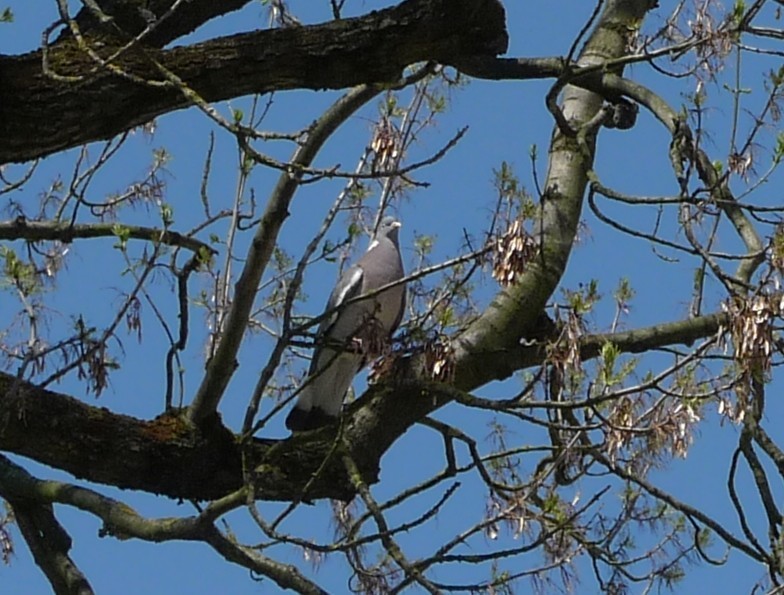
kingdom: Animalia
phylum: Chordata
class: Aves
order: Columbiformes
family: Columbidae
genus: Columba
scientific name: Columba palumbus
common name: Common wood pigeon
